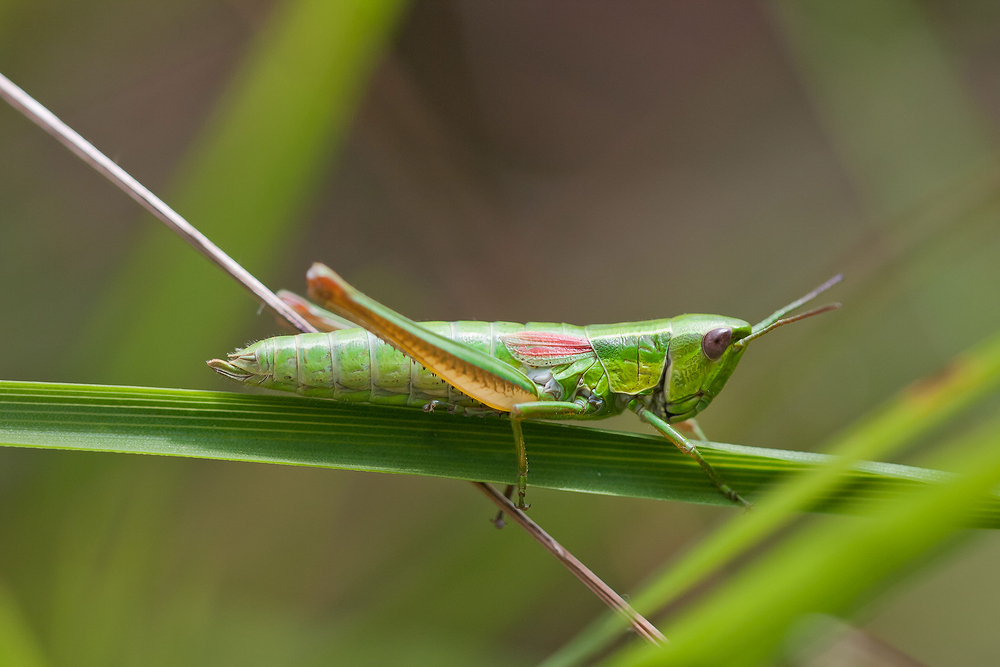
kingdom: Animalia
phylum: Arthropoda
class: Insecta
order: Orthoptera
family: Acrididae
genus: Euthystira
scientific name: Euthystira brachyptera
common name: Small gold grasshopper
